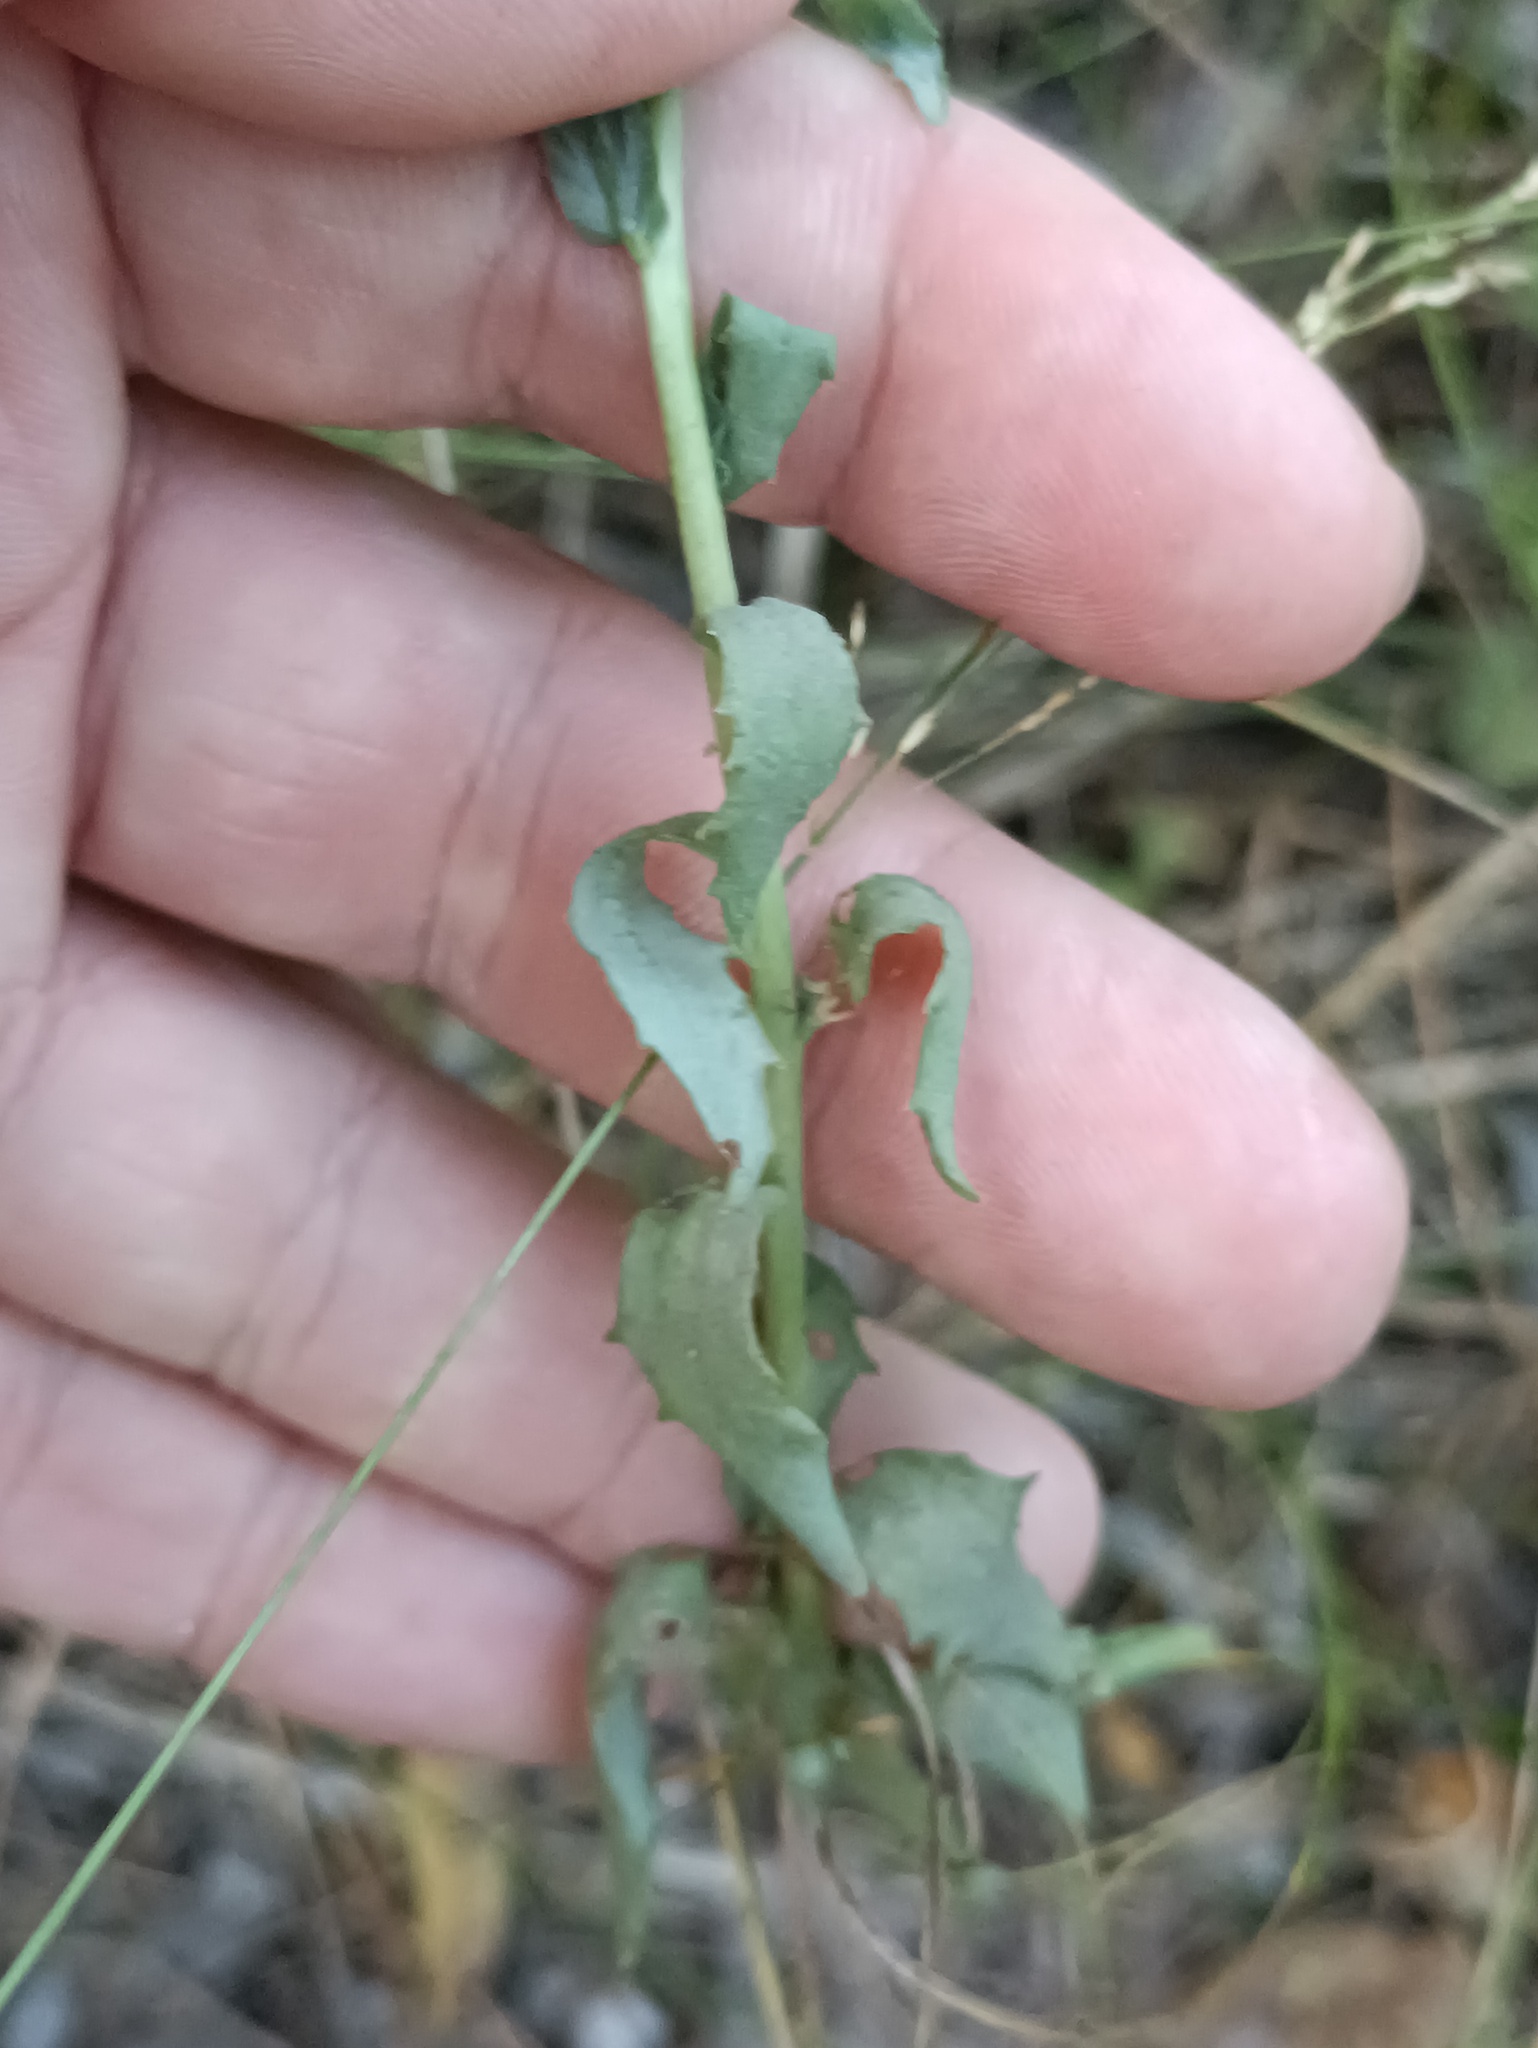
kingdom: Plantae
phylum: Tracheophyta
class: Magnoliopsida
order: Saxifragales
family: Crassulaceae
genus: Hylotelephium
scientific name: Hylotelephium telephium
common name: Live-forever
